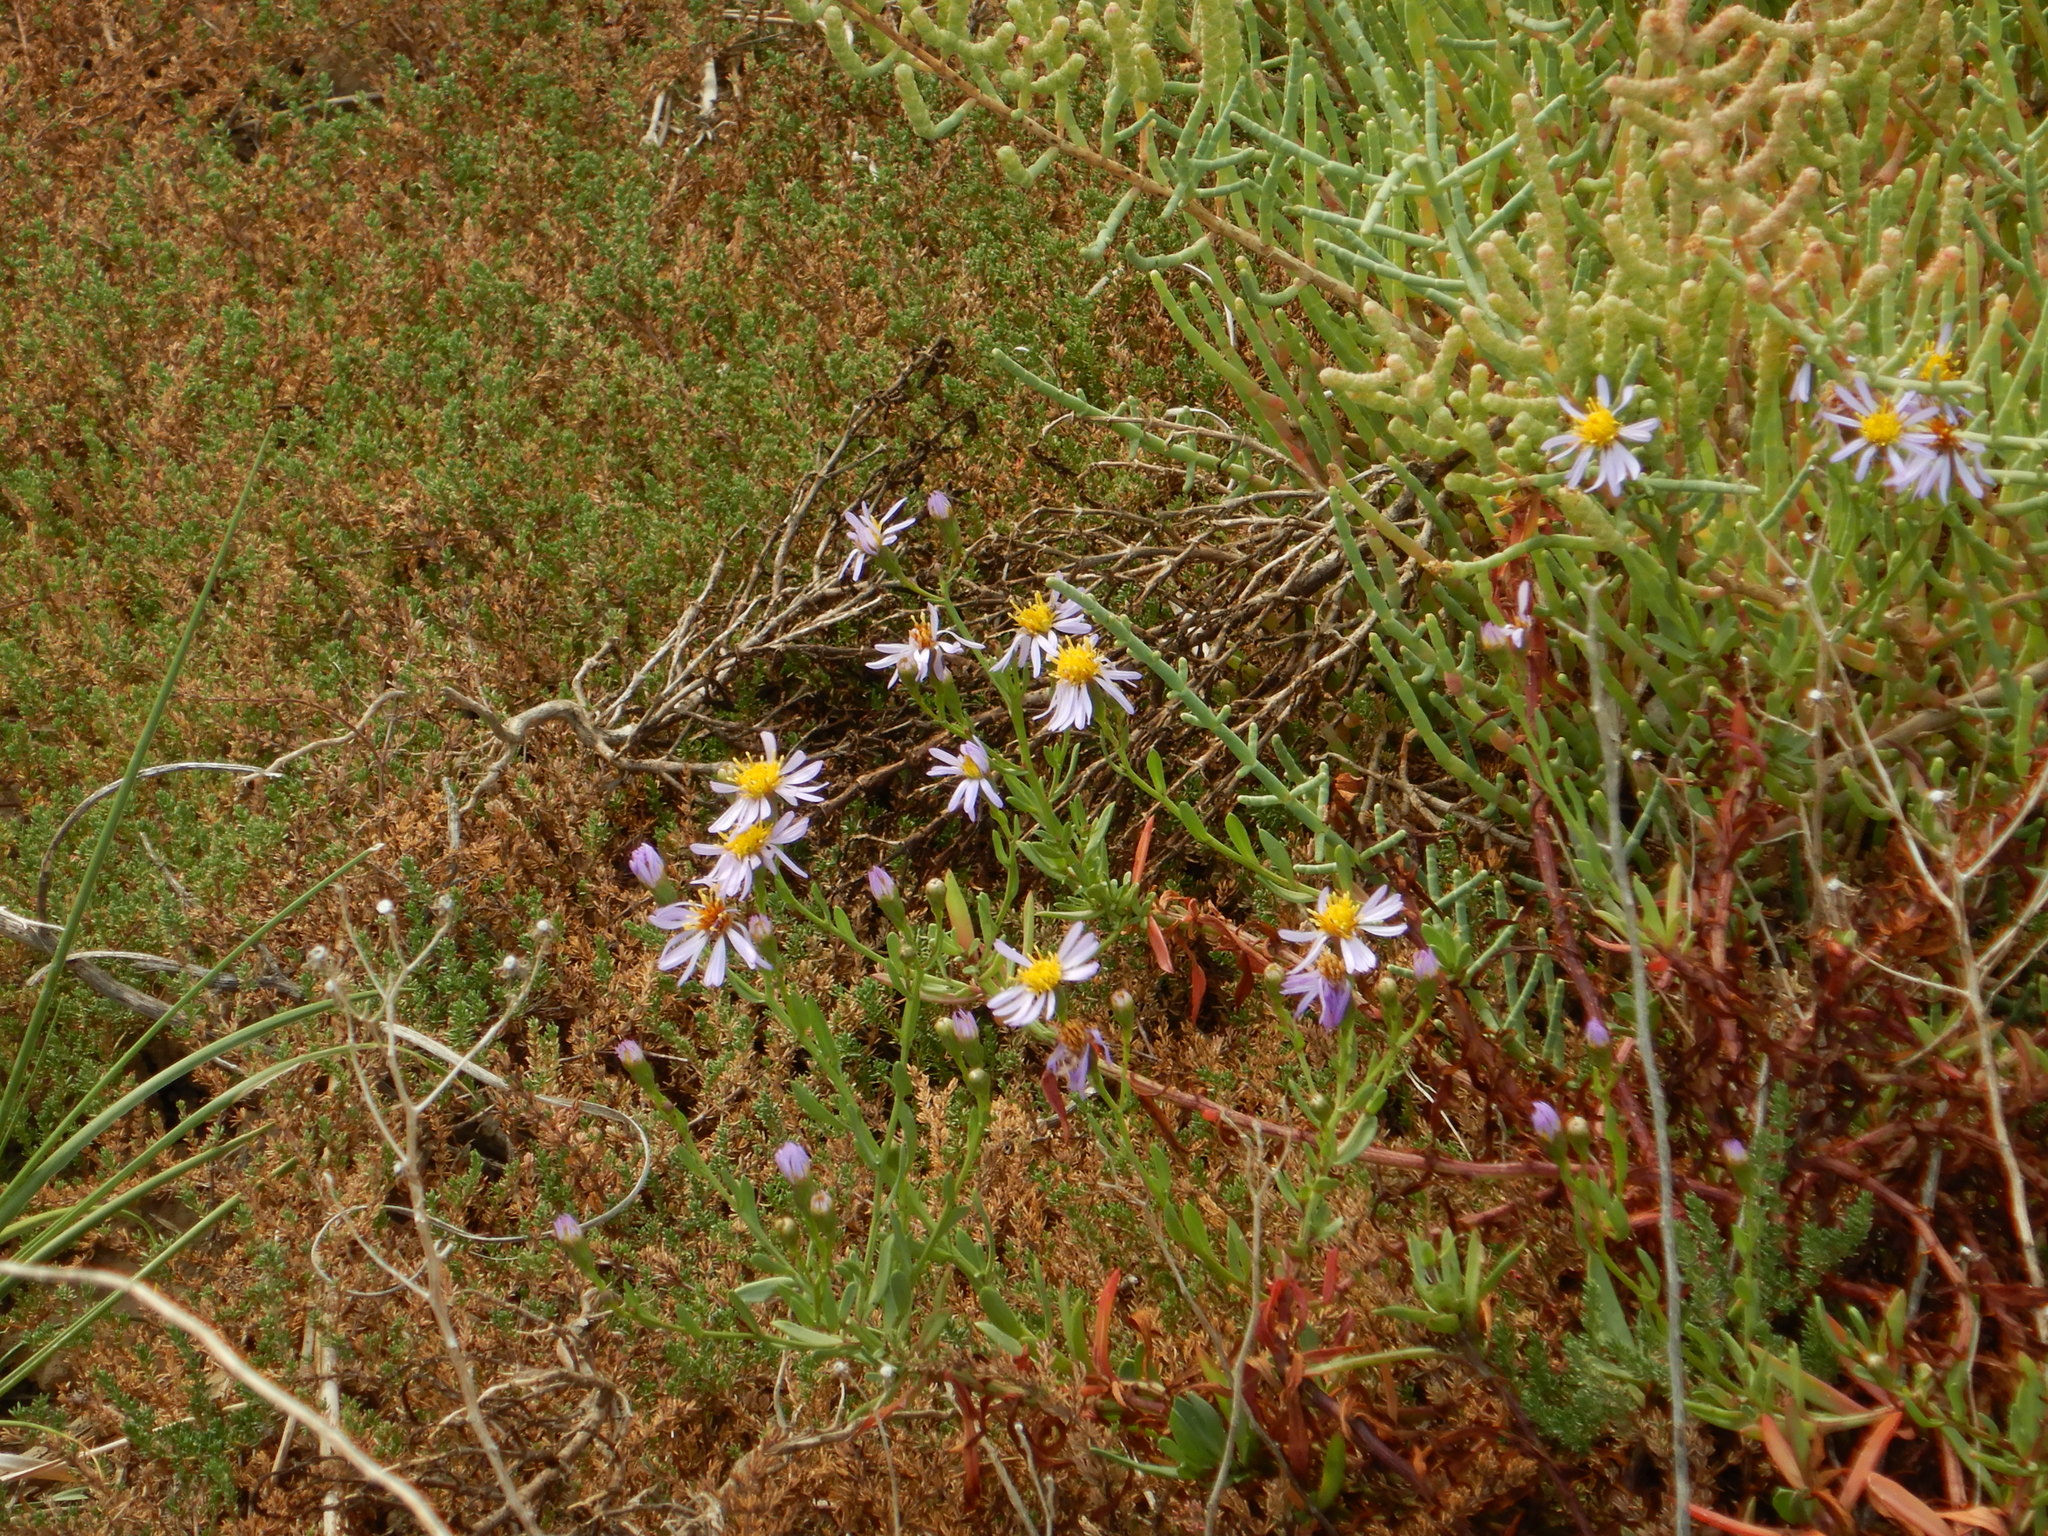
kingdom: Plantae
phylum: Tracheophyta
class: Magnoliopsida
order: Asterales
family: Asteraceae
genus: Tripolium
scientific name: Tripolium pannonicum
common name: Sea aster
